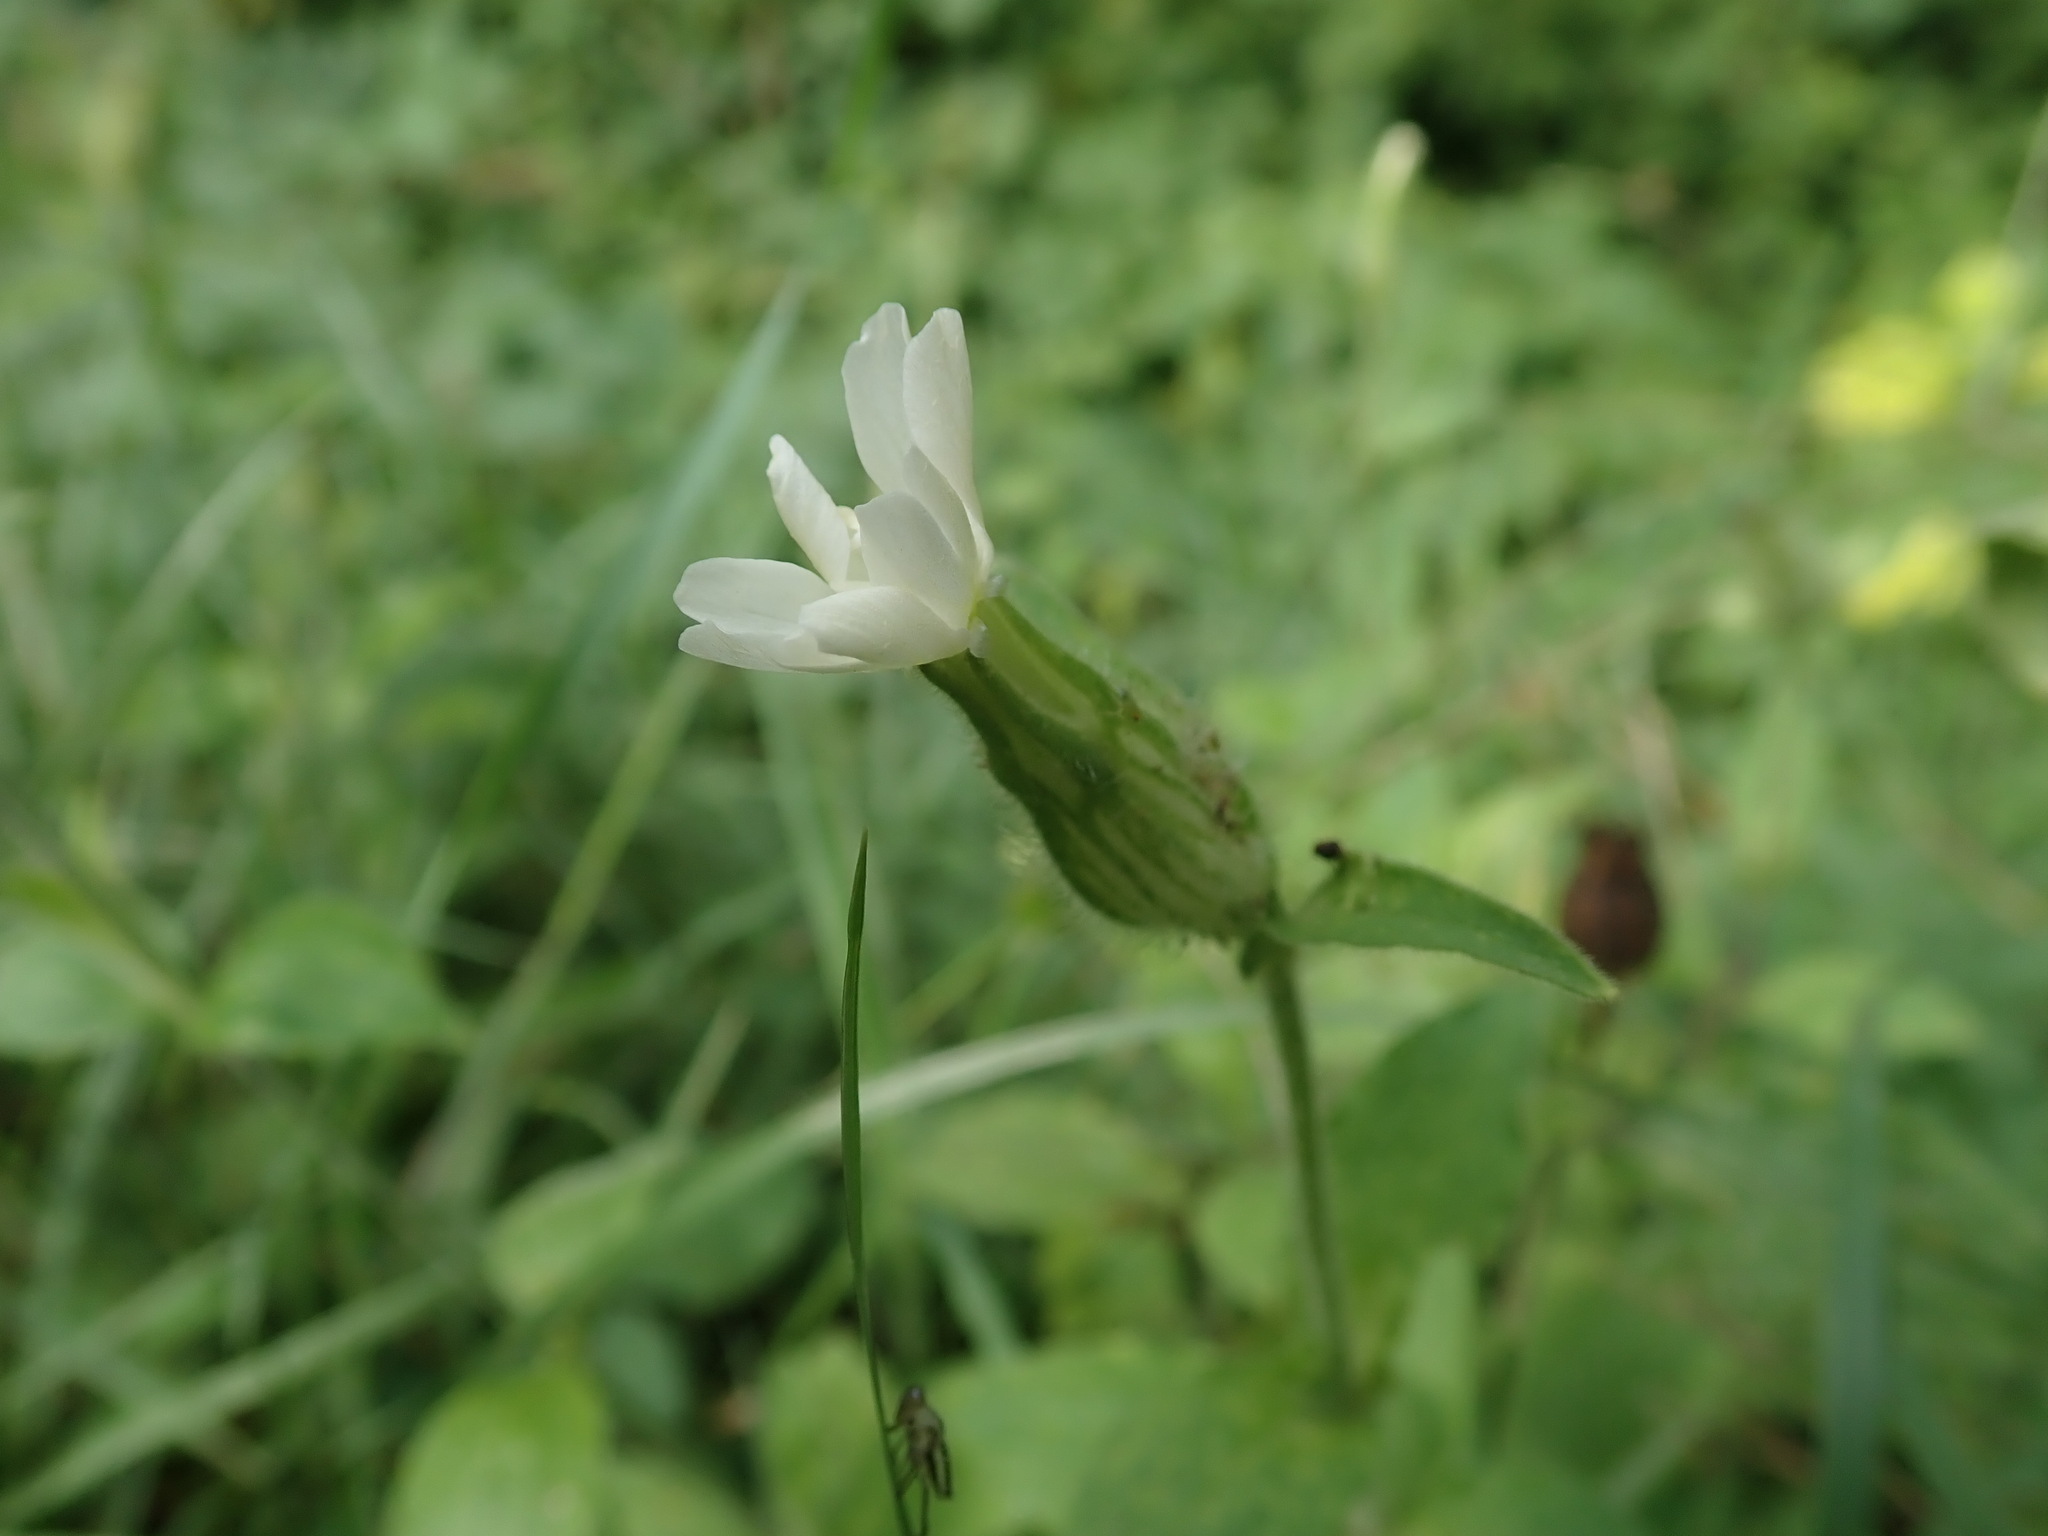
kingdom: Plantae
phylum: Tracheophyta
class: Magnoliopsida
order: Caryophyllales
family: Caryophyllaceae
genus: Silene
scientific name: Silene latifolia
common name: White campion
